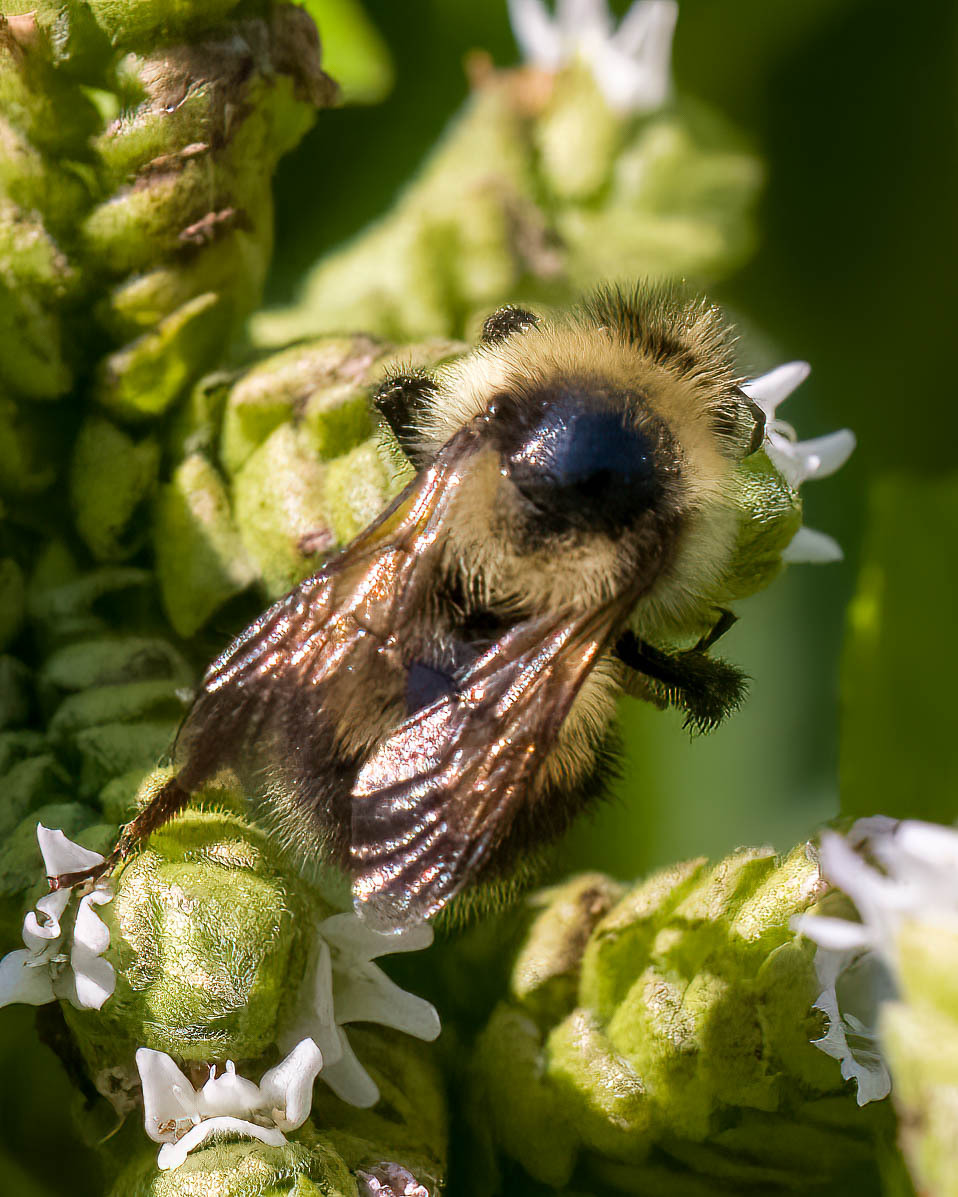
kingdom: Animalia
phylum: Arthropoda
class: Insecta
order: Hymenoptera
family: Apidae
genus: Bombus
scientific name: Bombus rufocinctus
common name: Red-belted bumble bee
